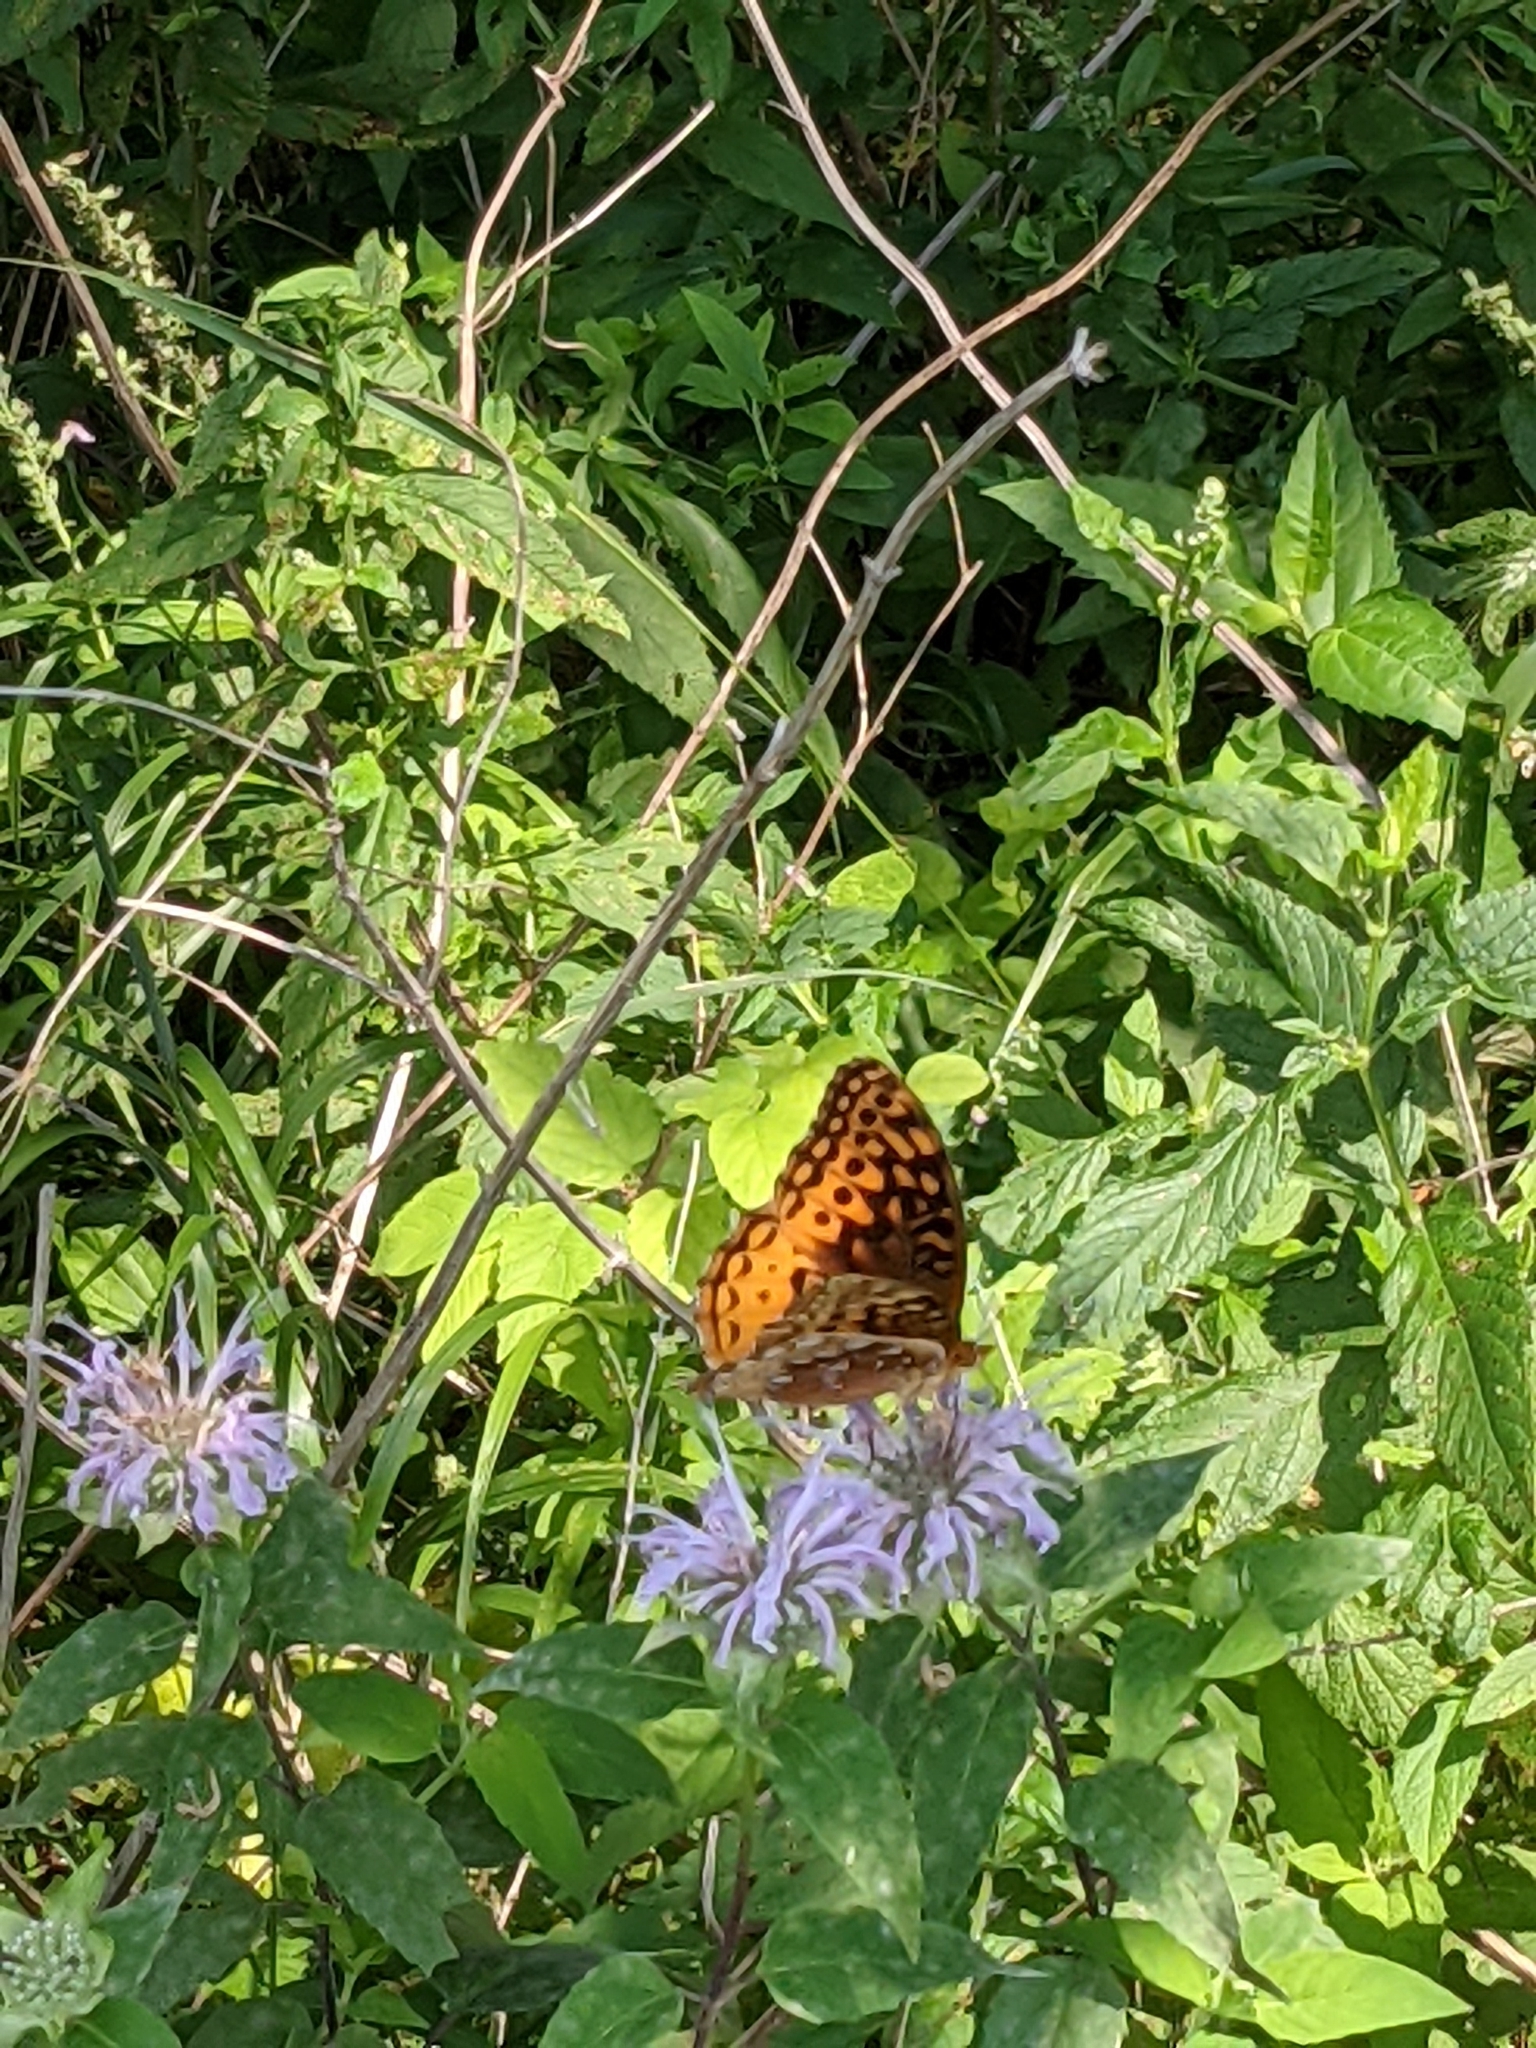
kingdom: Animalia
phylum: Arthropoda
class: Insecta
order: Lepidoptera
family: Nymphalidae
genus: Speyeria
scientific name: Speyeria cybele
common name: Great spangled fritillary
